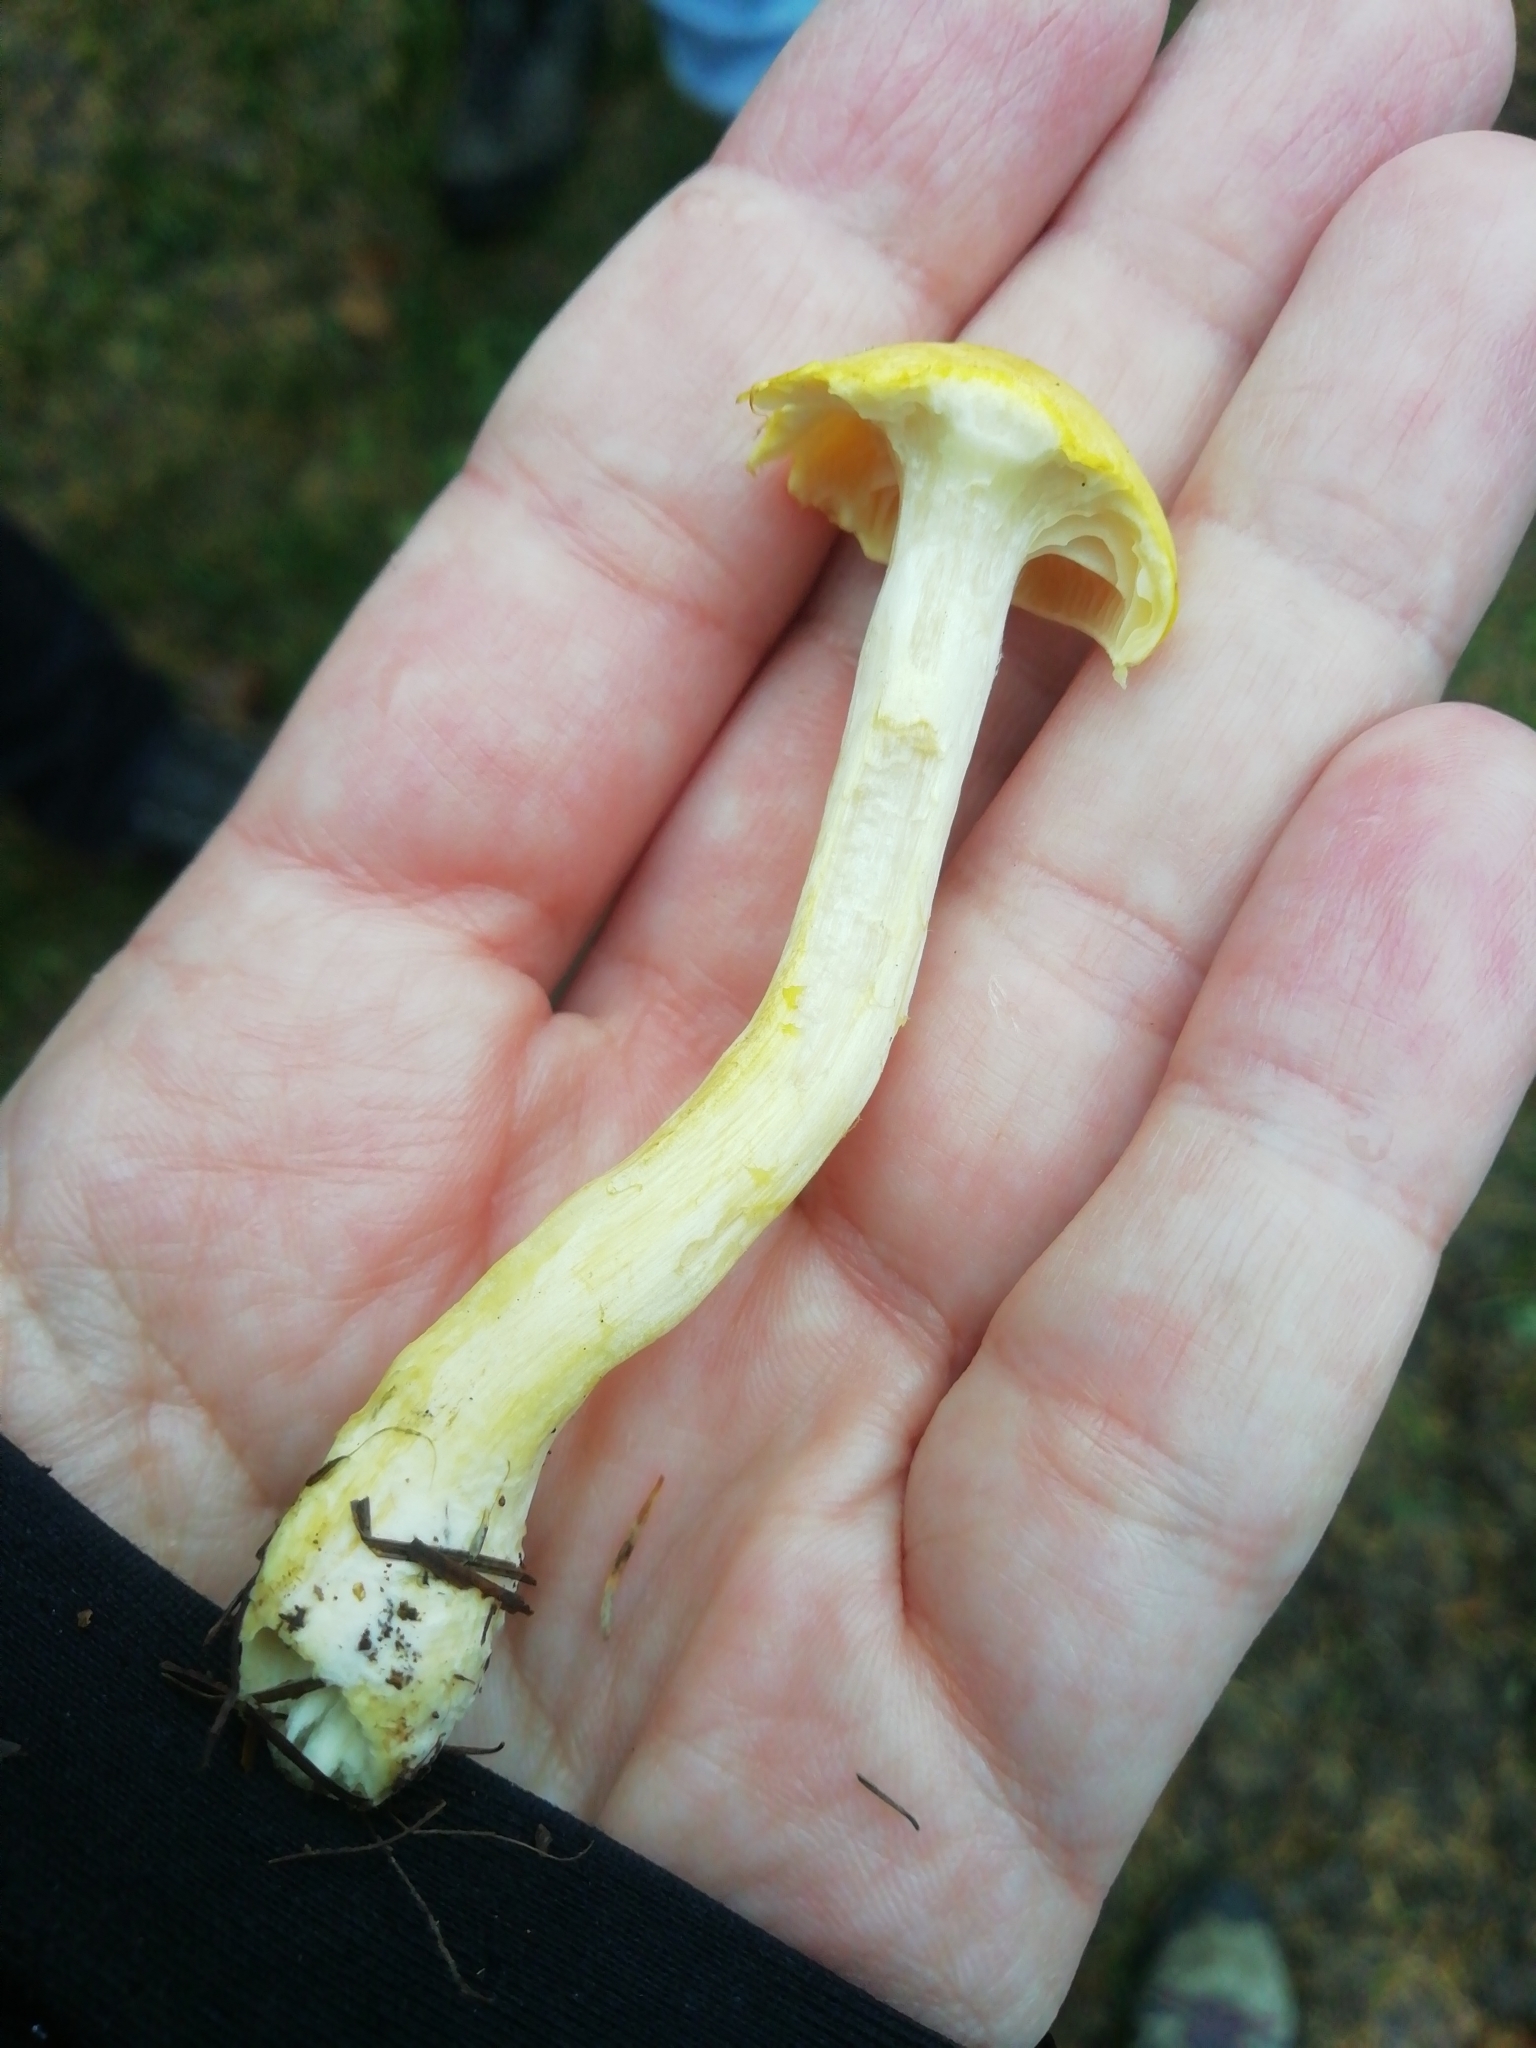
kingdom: Fungi
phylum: Basidiomycota
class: Agaricomycetes
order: Agaricales
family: Hygrophoraceae
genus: Hygrophorus
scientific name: Hygrophorus lucorum
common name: Larch woodwax
